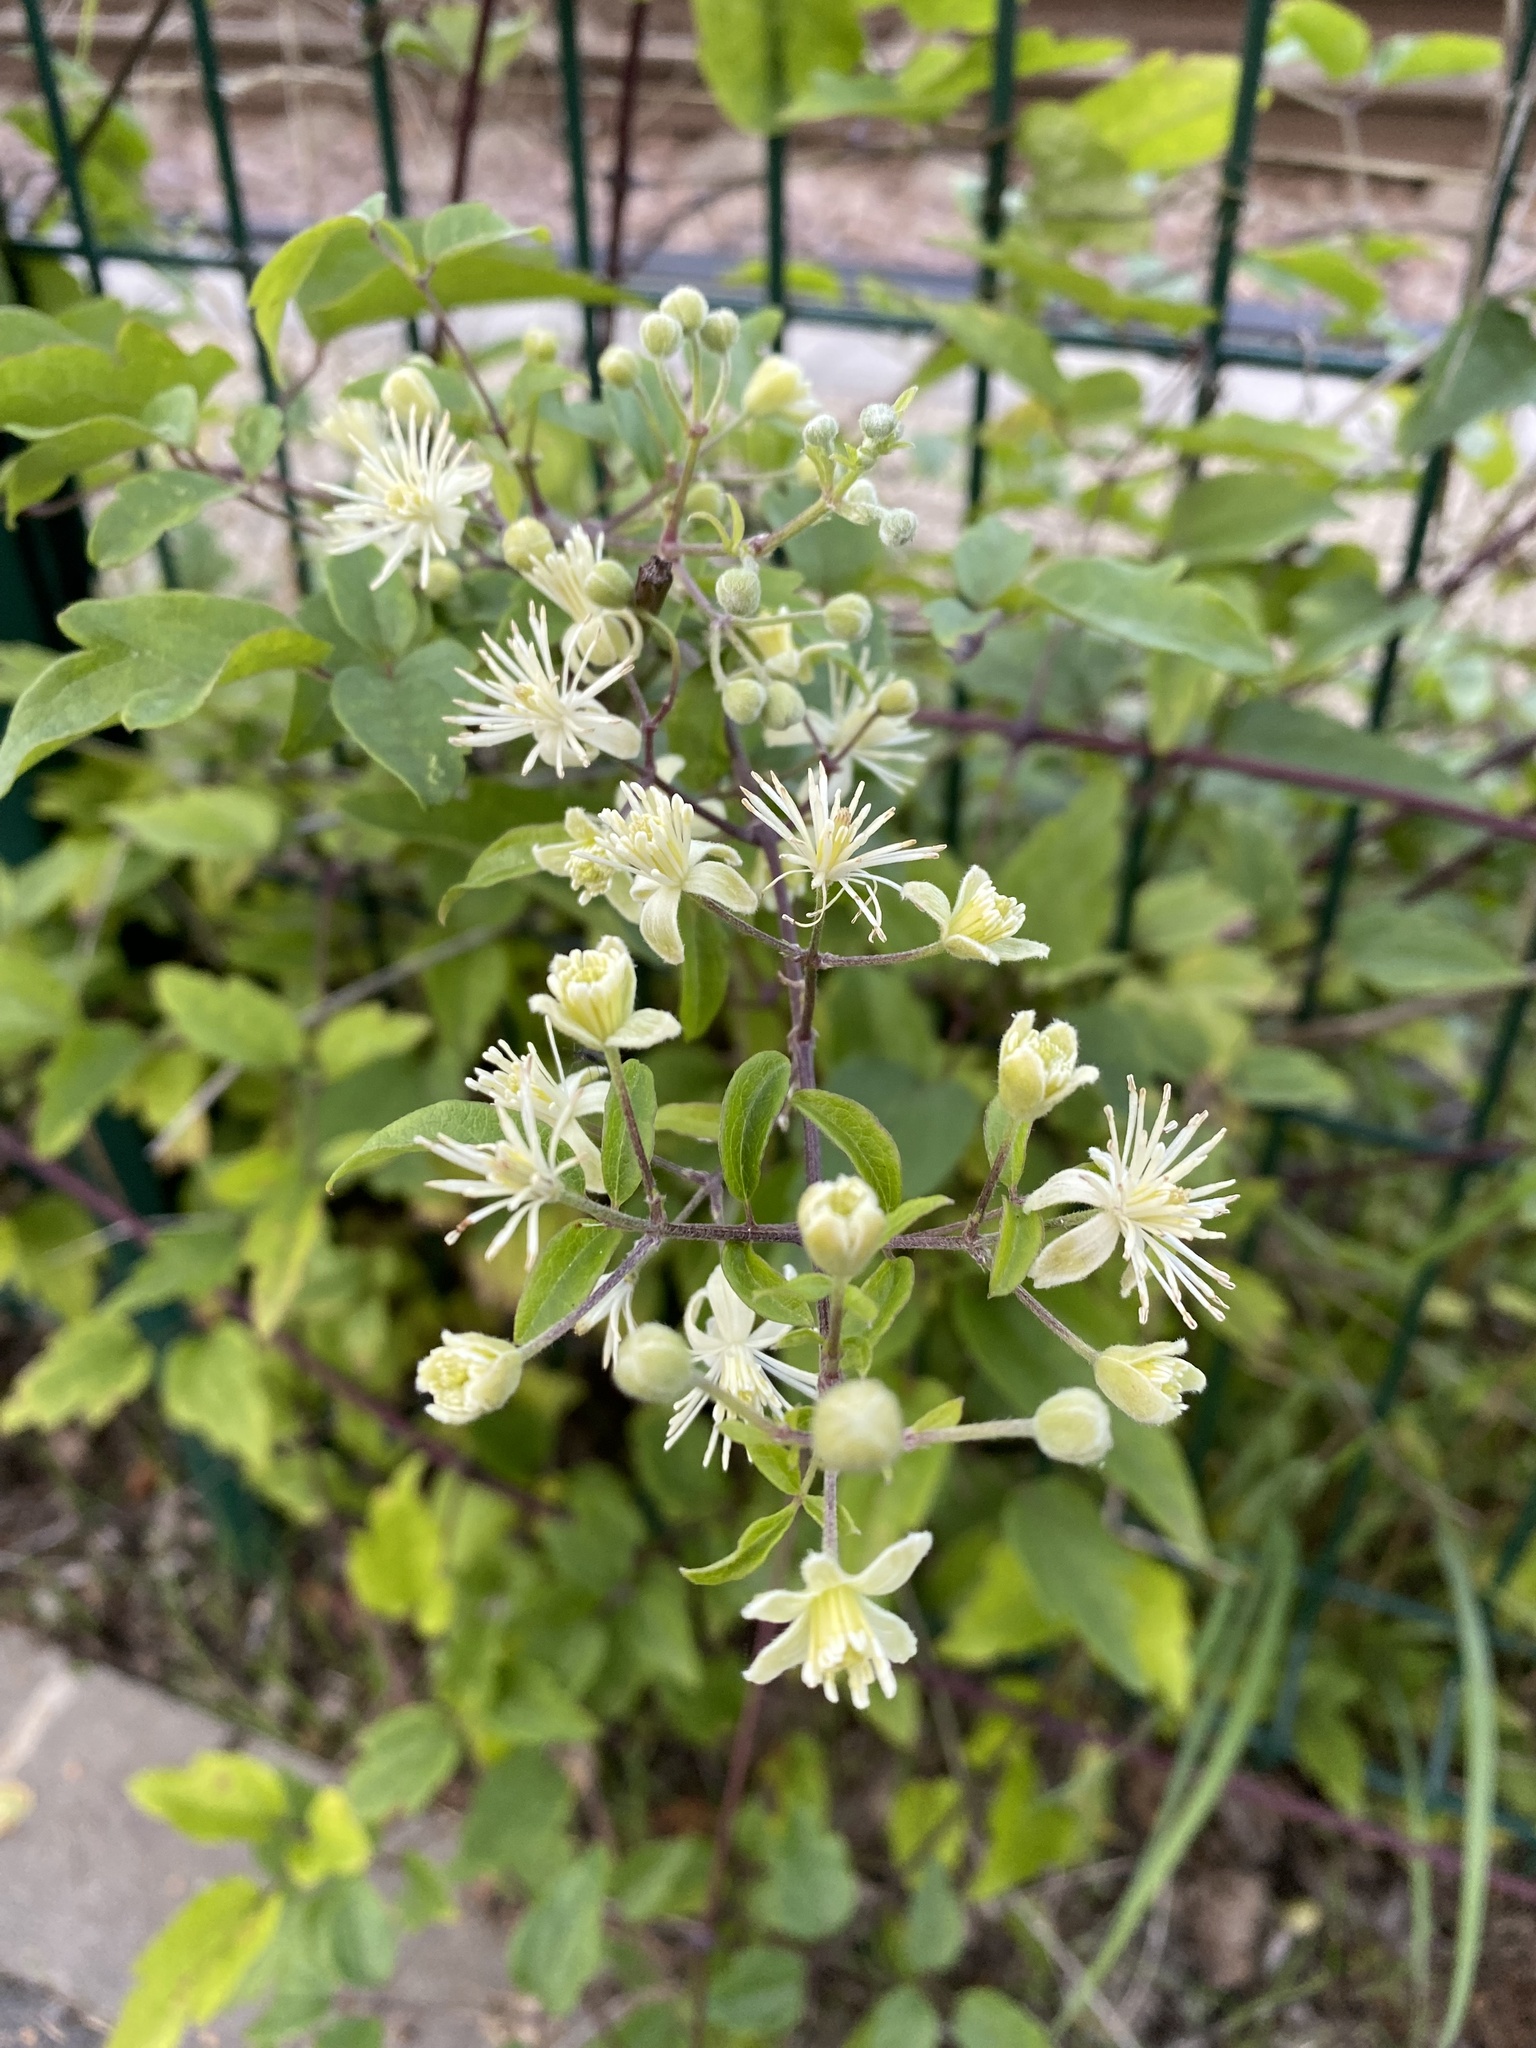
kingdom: Plantae
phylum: Tracheophyta
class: Magnoliopsida
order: Ranunculales
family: Ranunculaceae
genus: Clematis
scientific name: Clematis vitalba
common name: Evergreen clematis
